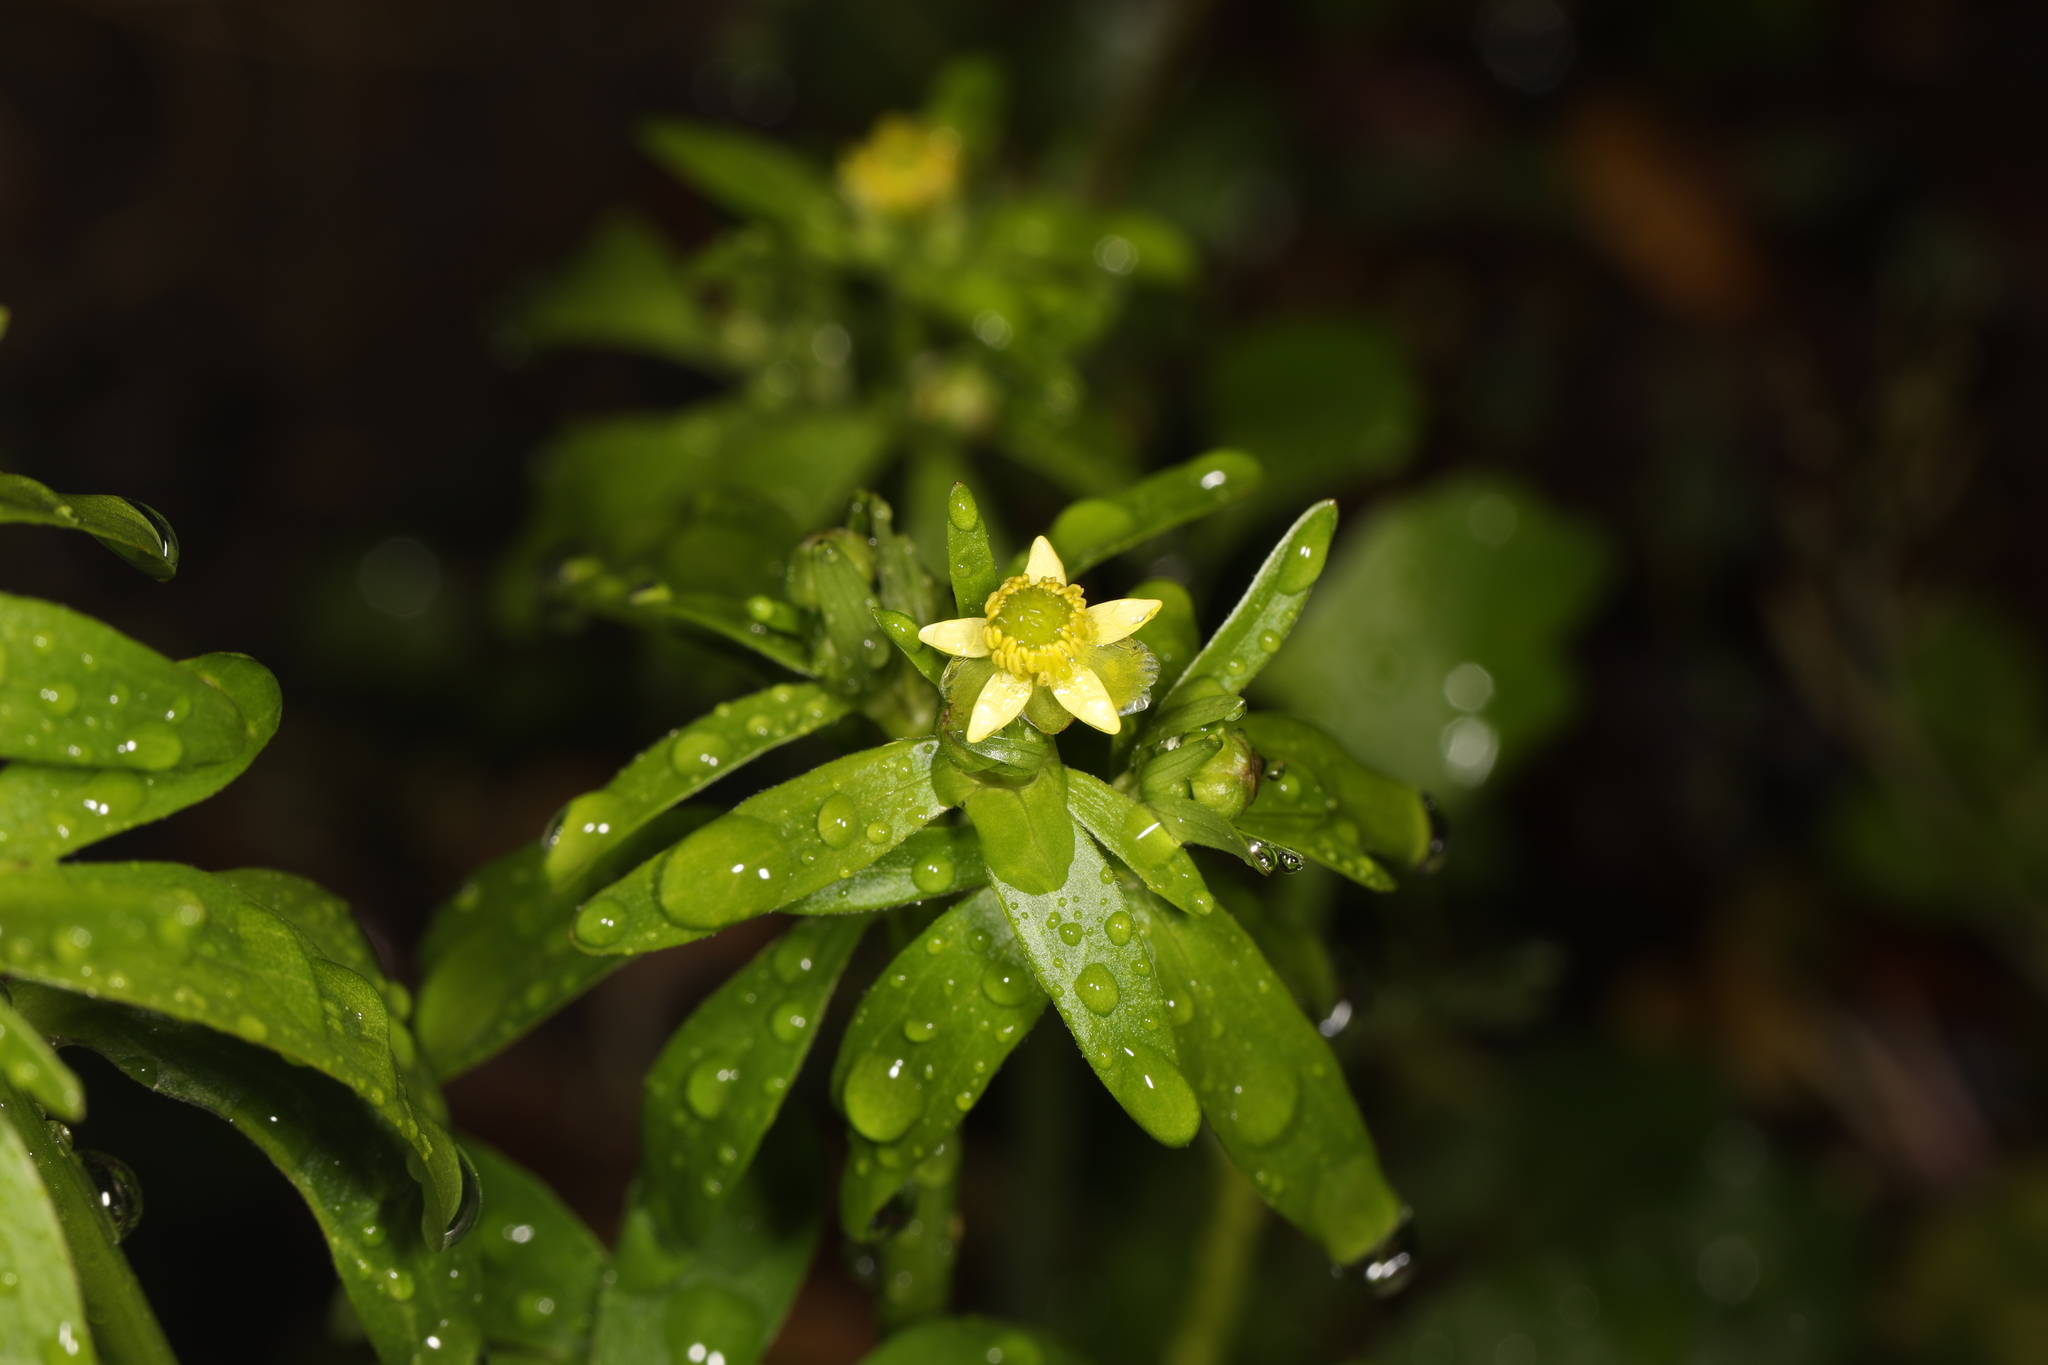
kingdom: Plantae
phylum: Tracheophyta
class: Magnoliopsida
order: Ranunculales
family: Ranunculaceae
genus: Ranunculus
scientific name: Ranunculus abortivus
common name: Early wood buttercup
